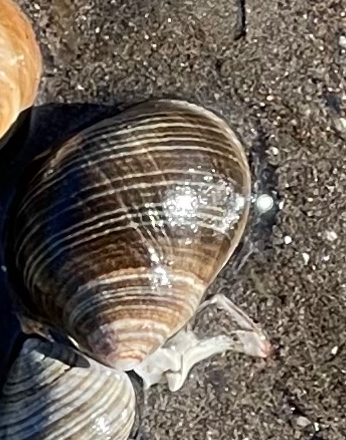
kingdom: Animalia
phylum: Mollusca
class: Gastropoda
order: Littorinimorpha
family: Littorinidae
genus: Littorina
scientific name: Littorina littorea
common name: Common periwinkle
